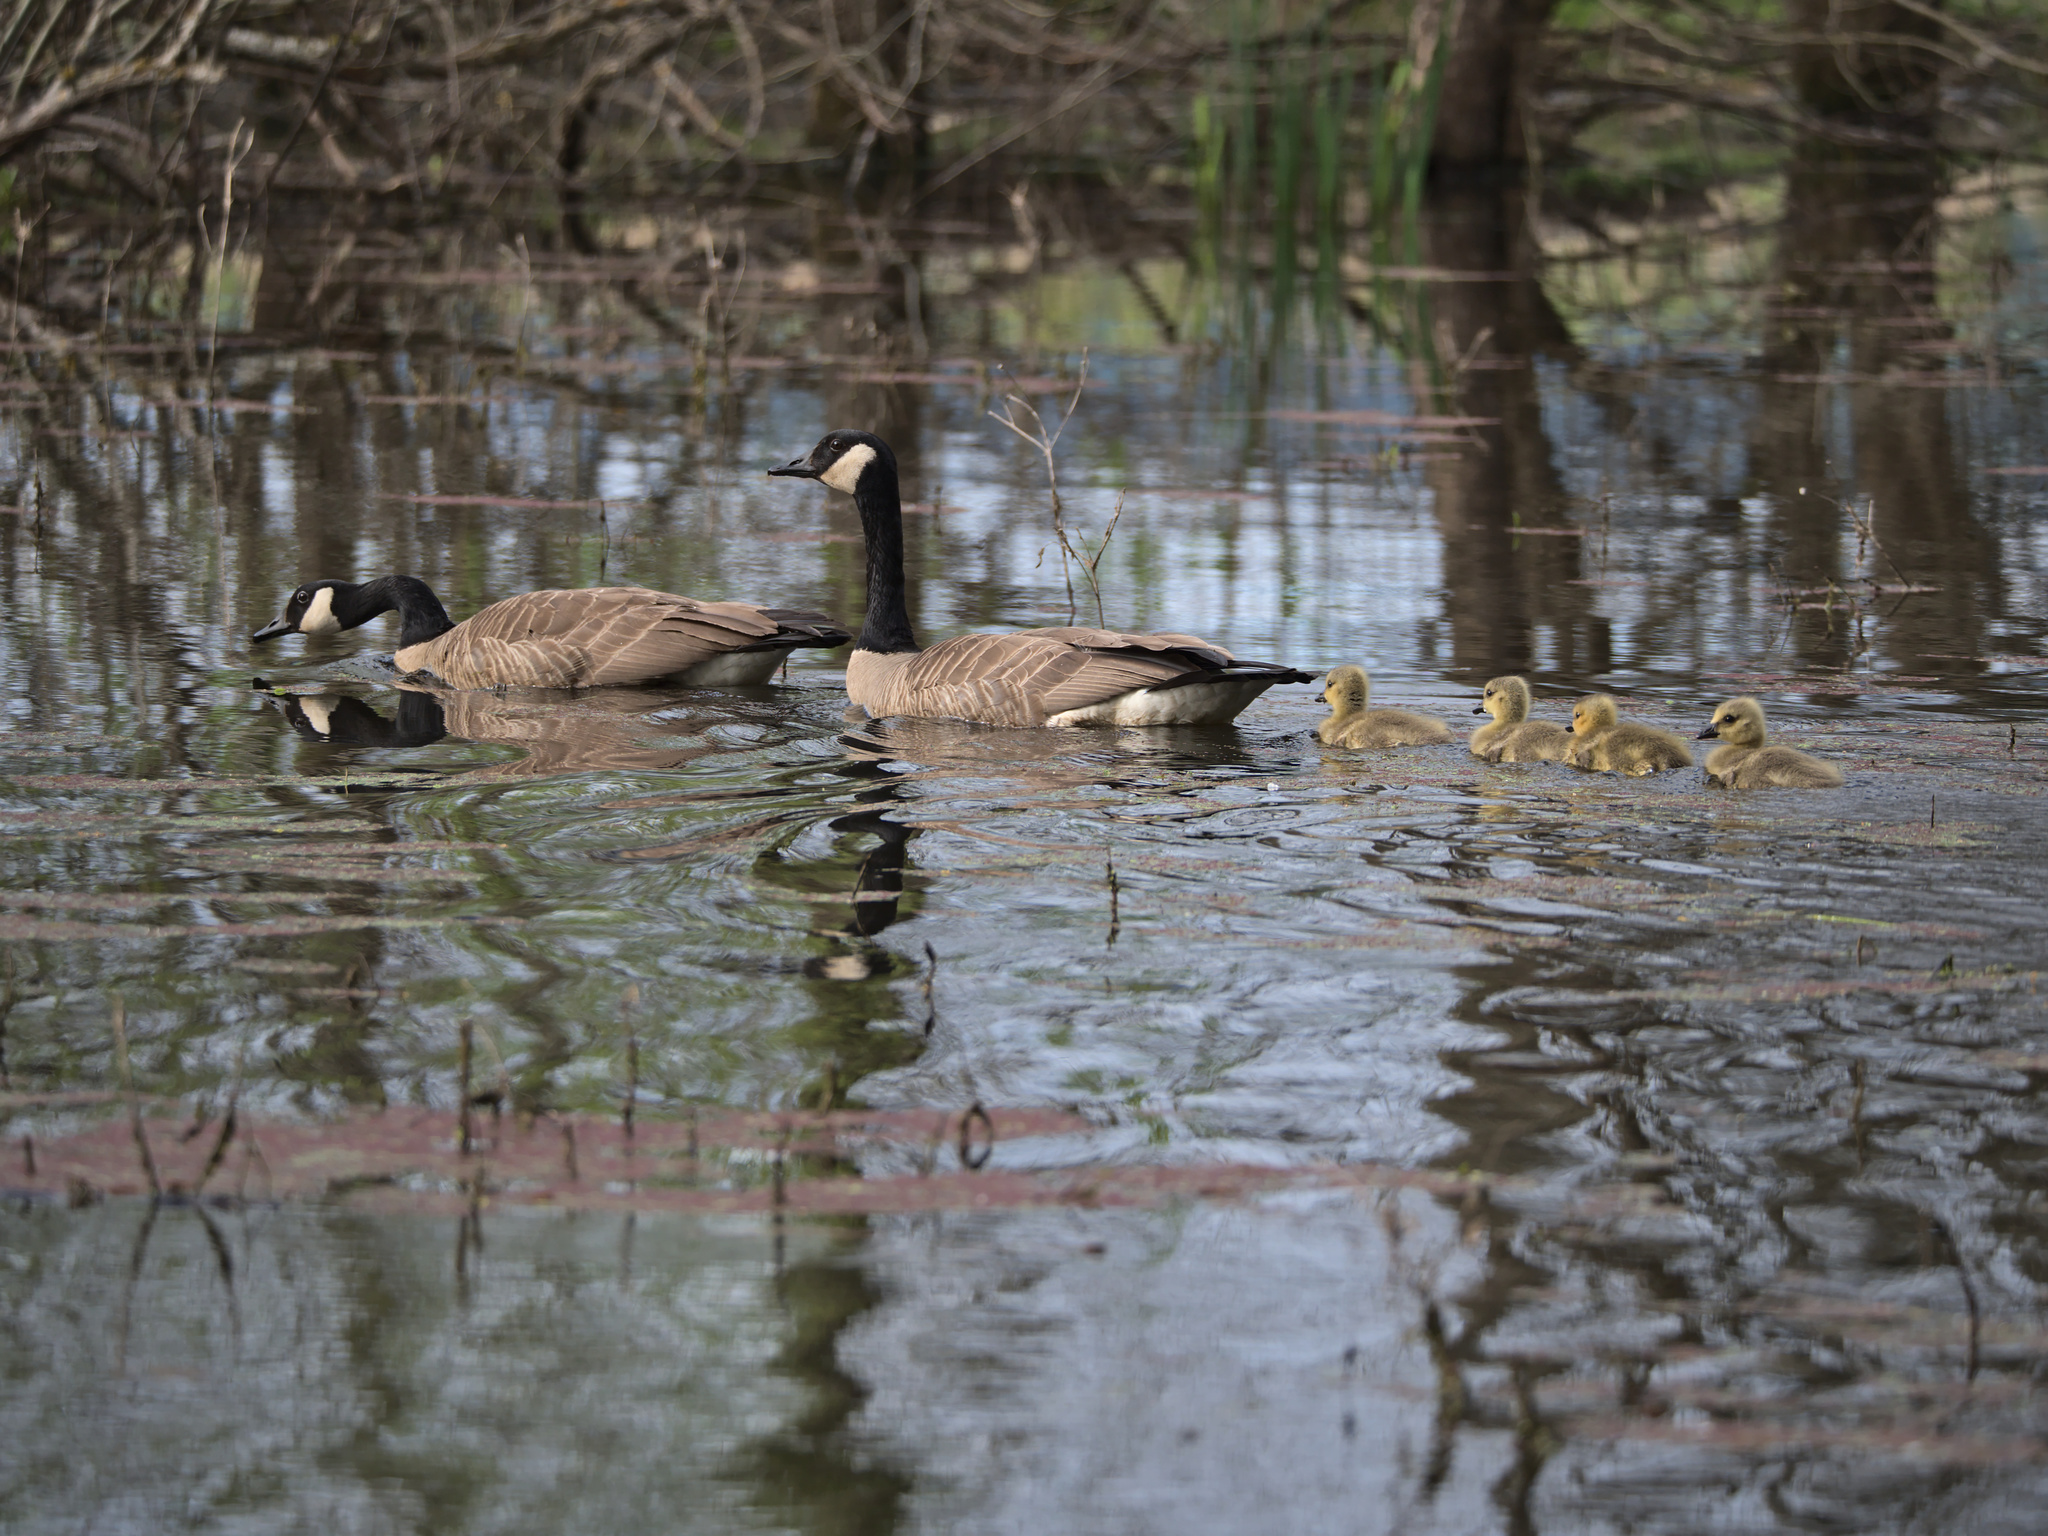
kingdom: Animalia
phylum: Chordata
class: Aves
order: Anseriformes
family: Anatidae
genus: Branta
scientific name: Branta canadensis
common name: Canada goose
